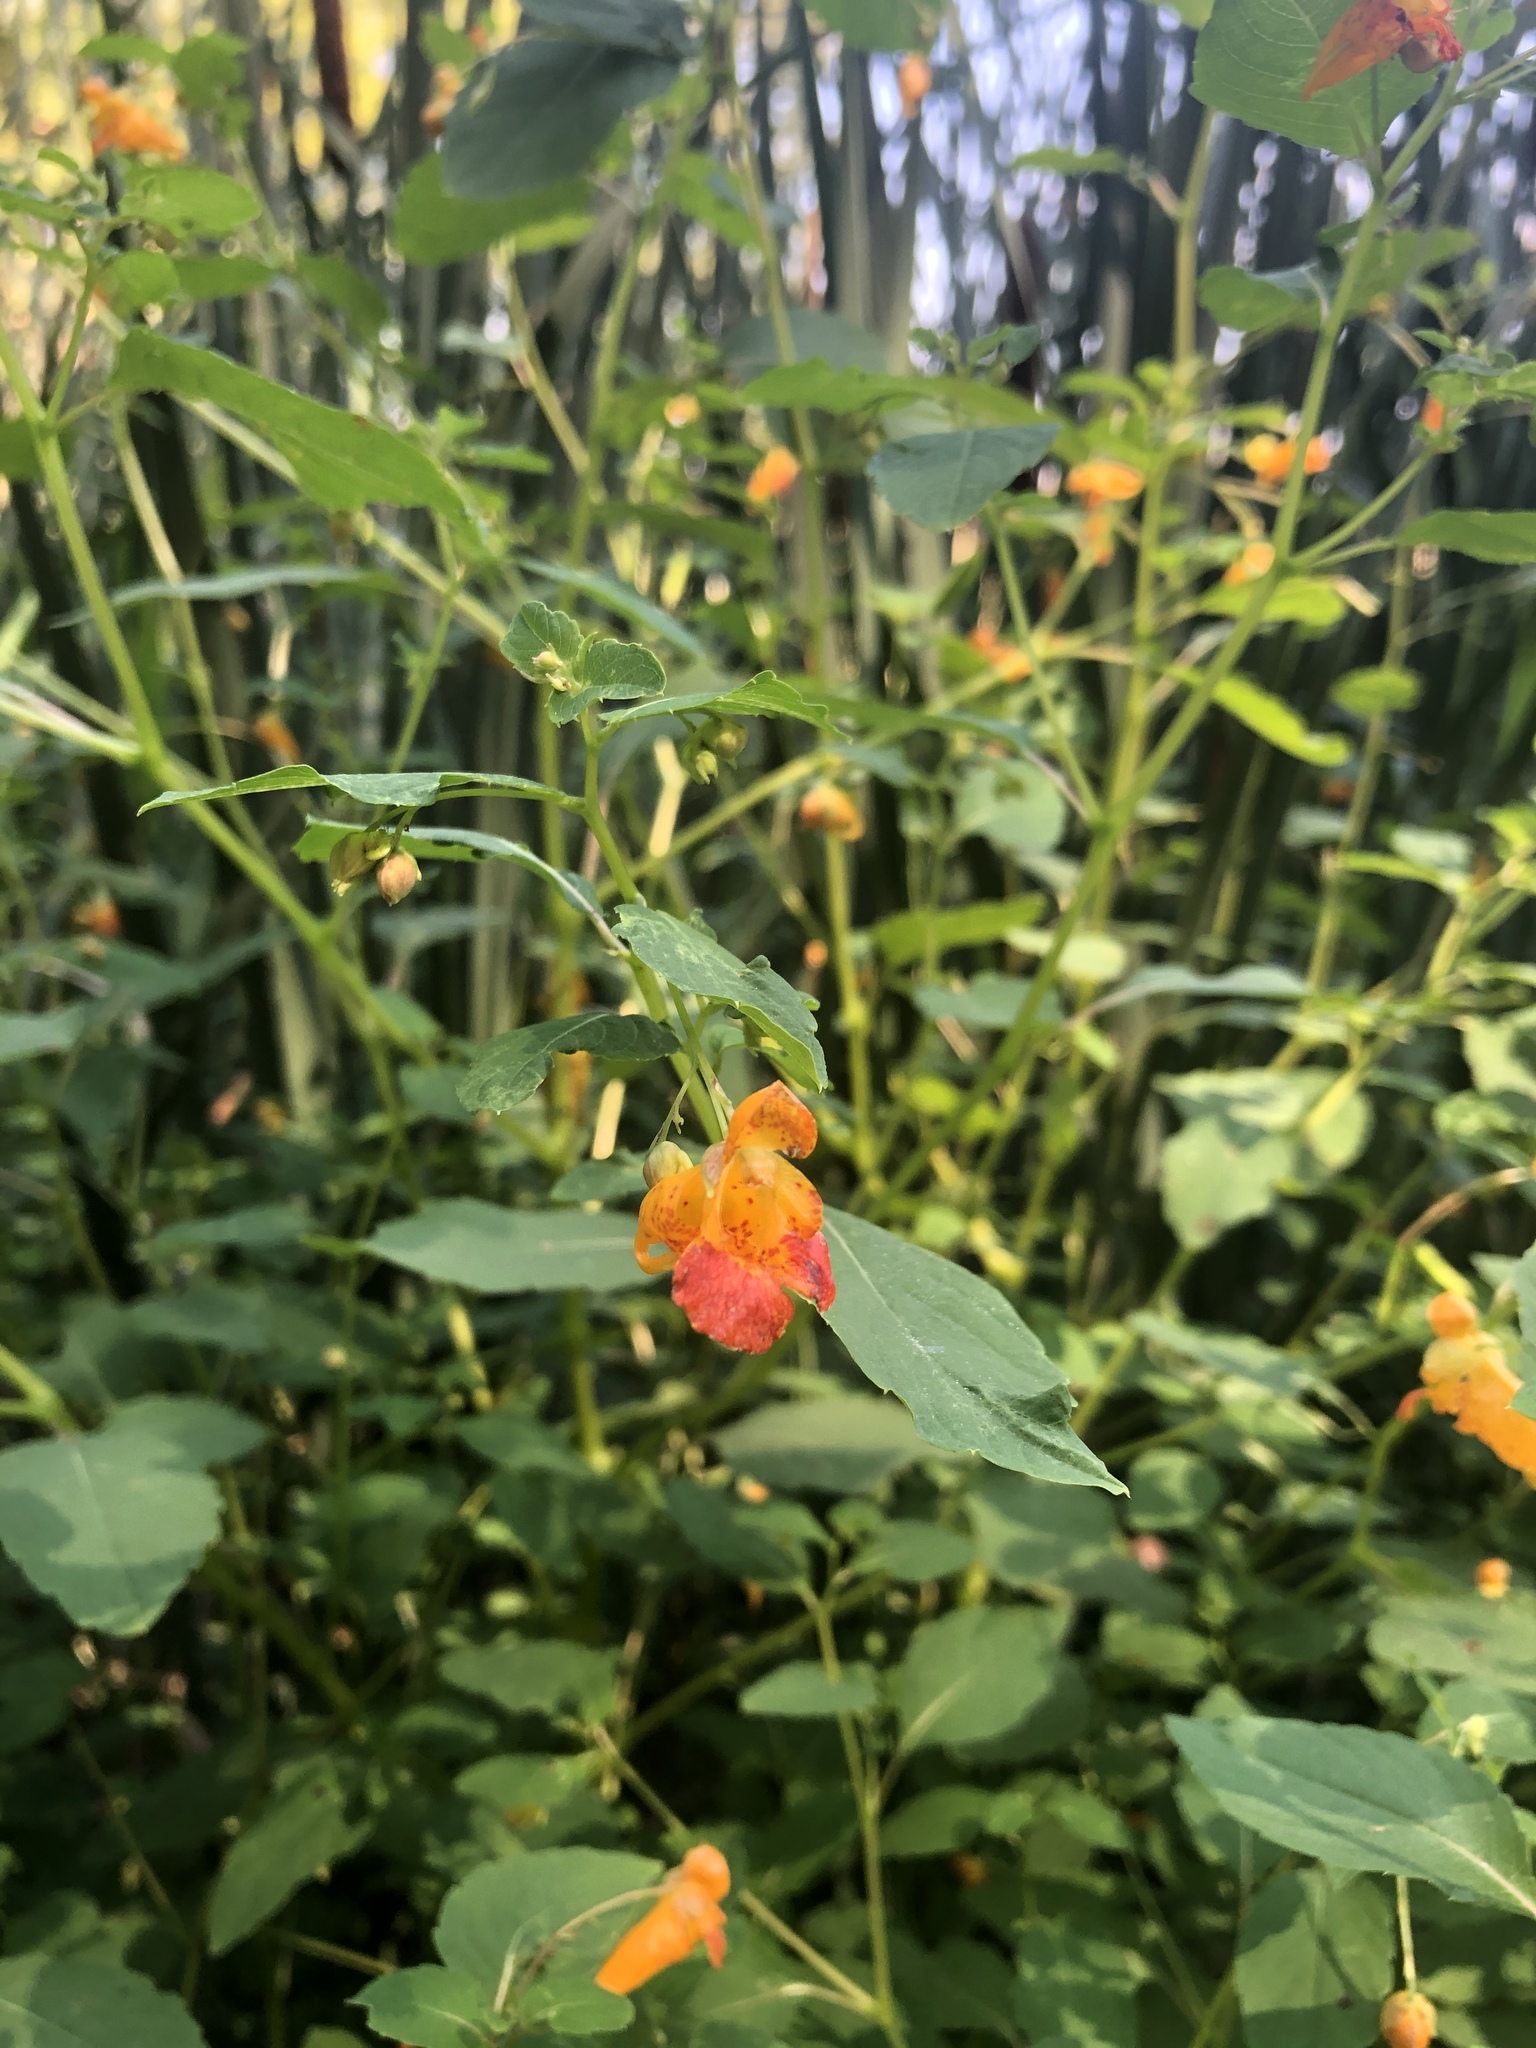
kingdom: Plantae
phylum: Tracheophyta
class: Magnoliopsida
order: Ericales
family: Balsaminaceae
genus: Impatiens
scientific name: Impatiens capensis
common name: Orange balsam
